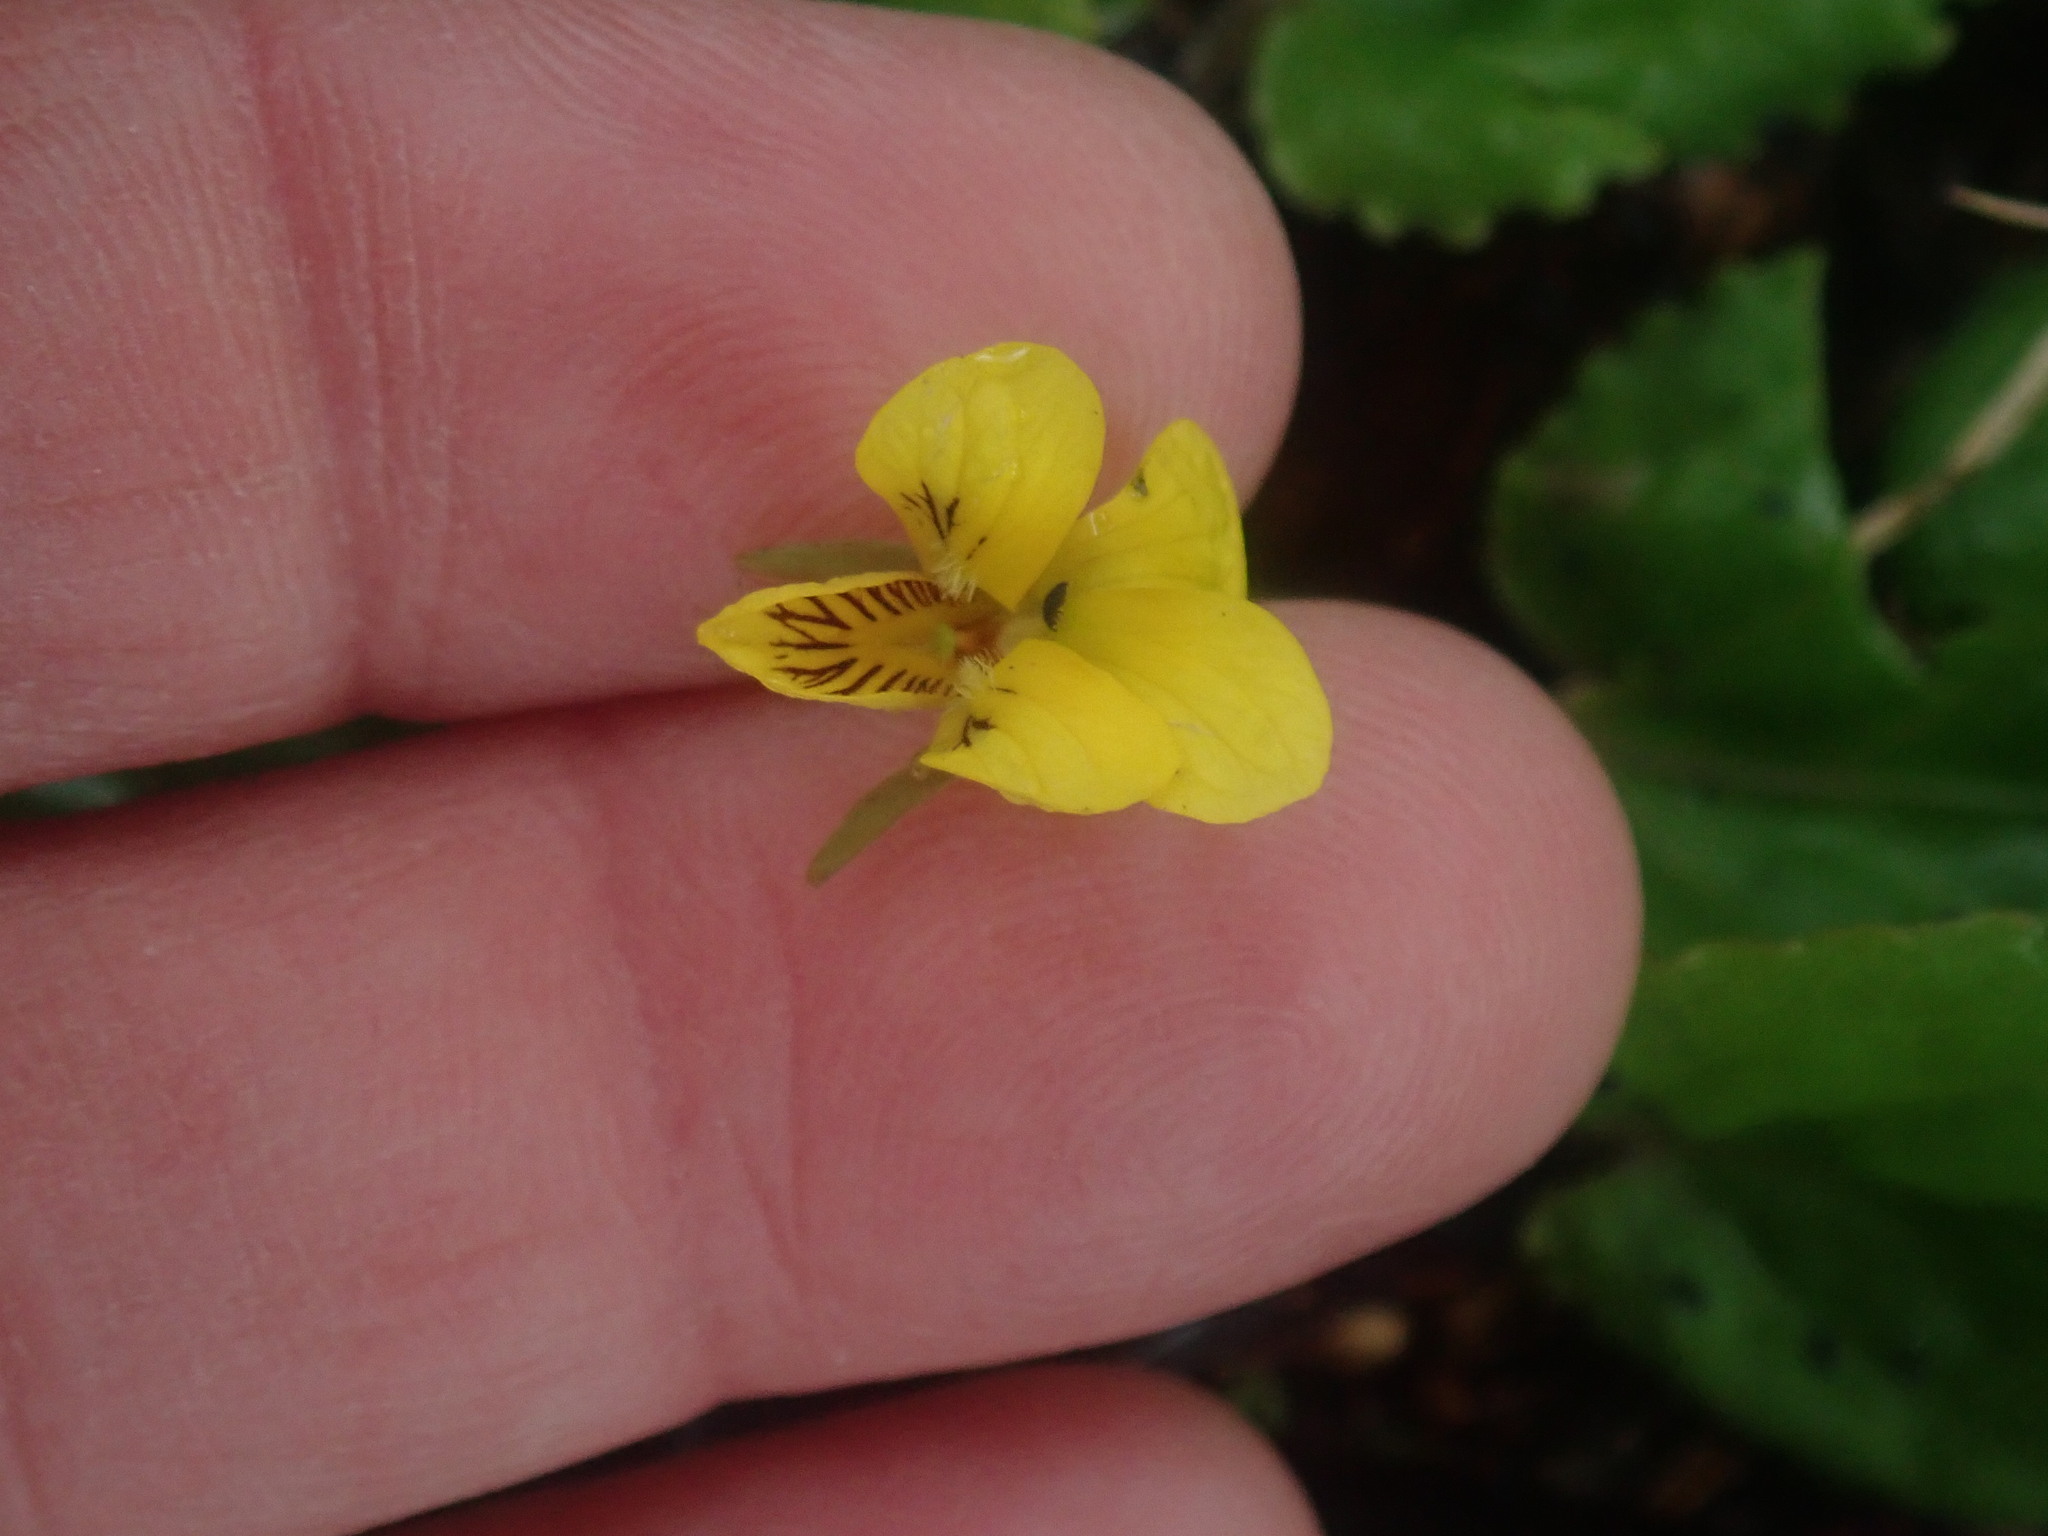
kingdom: Plantae
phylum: Tracheophyta
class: Magnoliopsida
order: Malpighiales
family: Violaceae
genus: Viola
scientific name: Viola rotundifolia
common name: Early yellow violet
